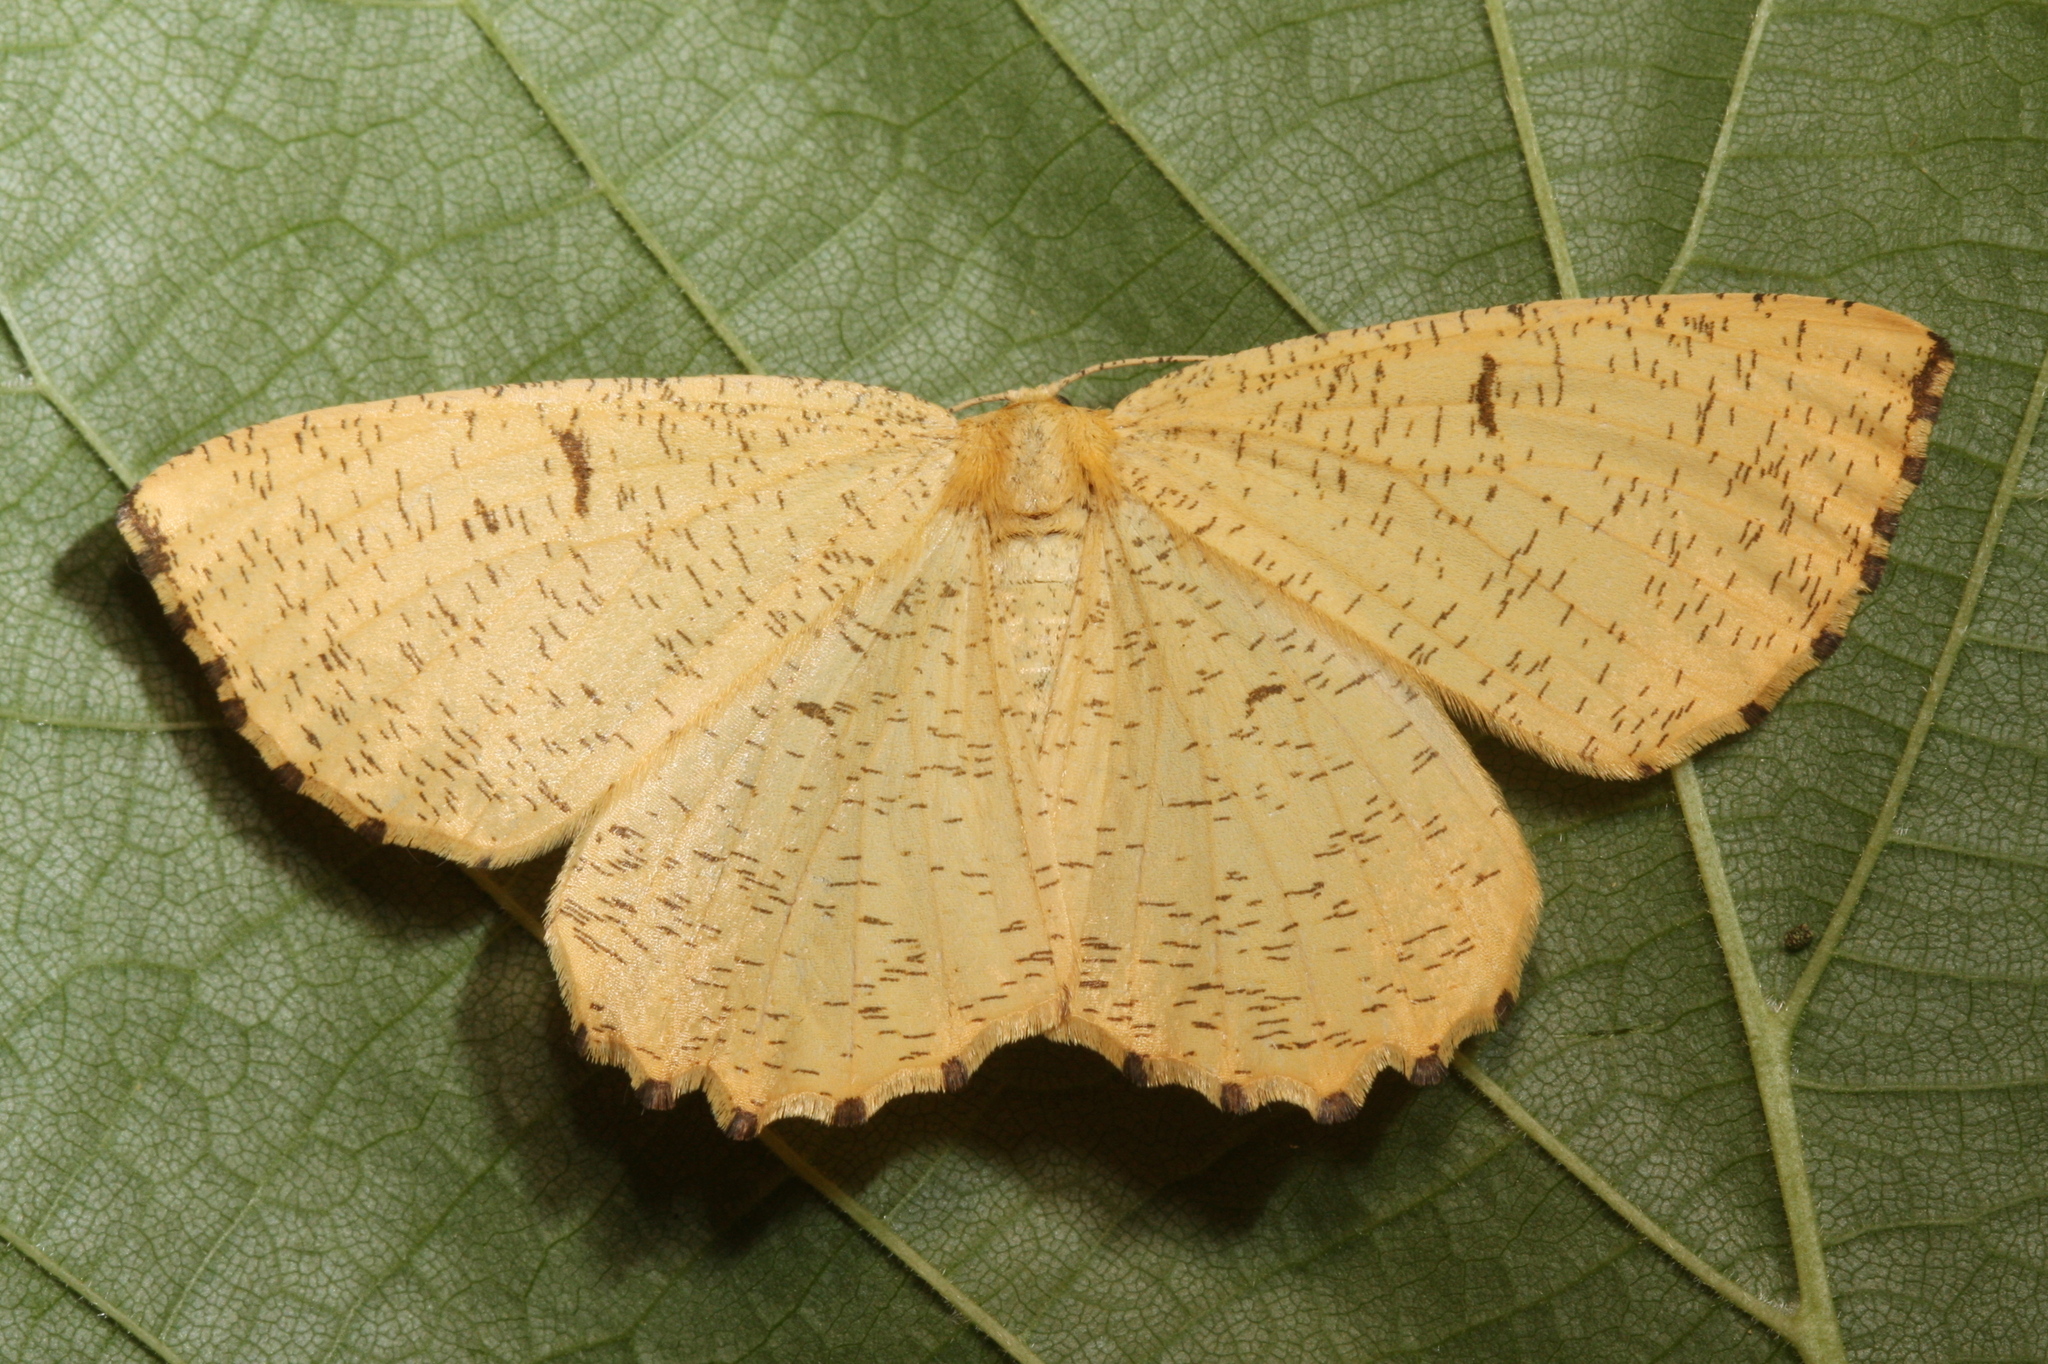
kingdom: Animalia
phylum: Arthropoda
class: Insecta
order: Lepidoptera
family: Geometridae
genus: Angerona
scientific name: Angerona prunaria
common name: Orange moth
